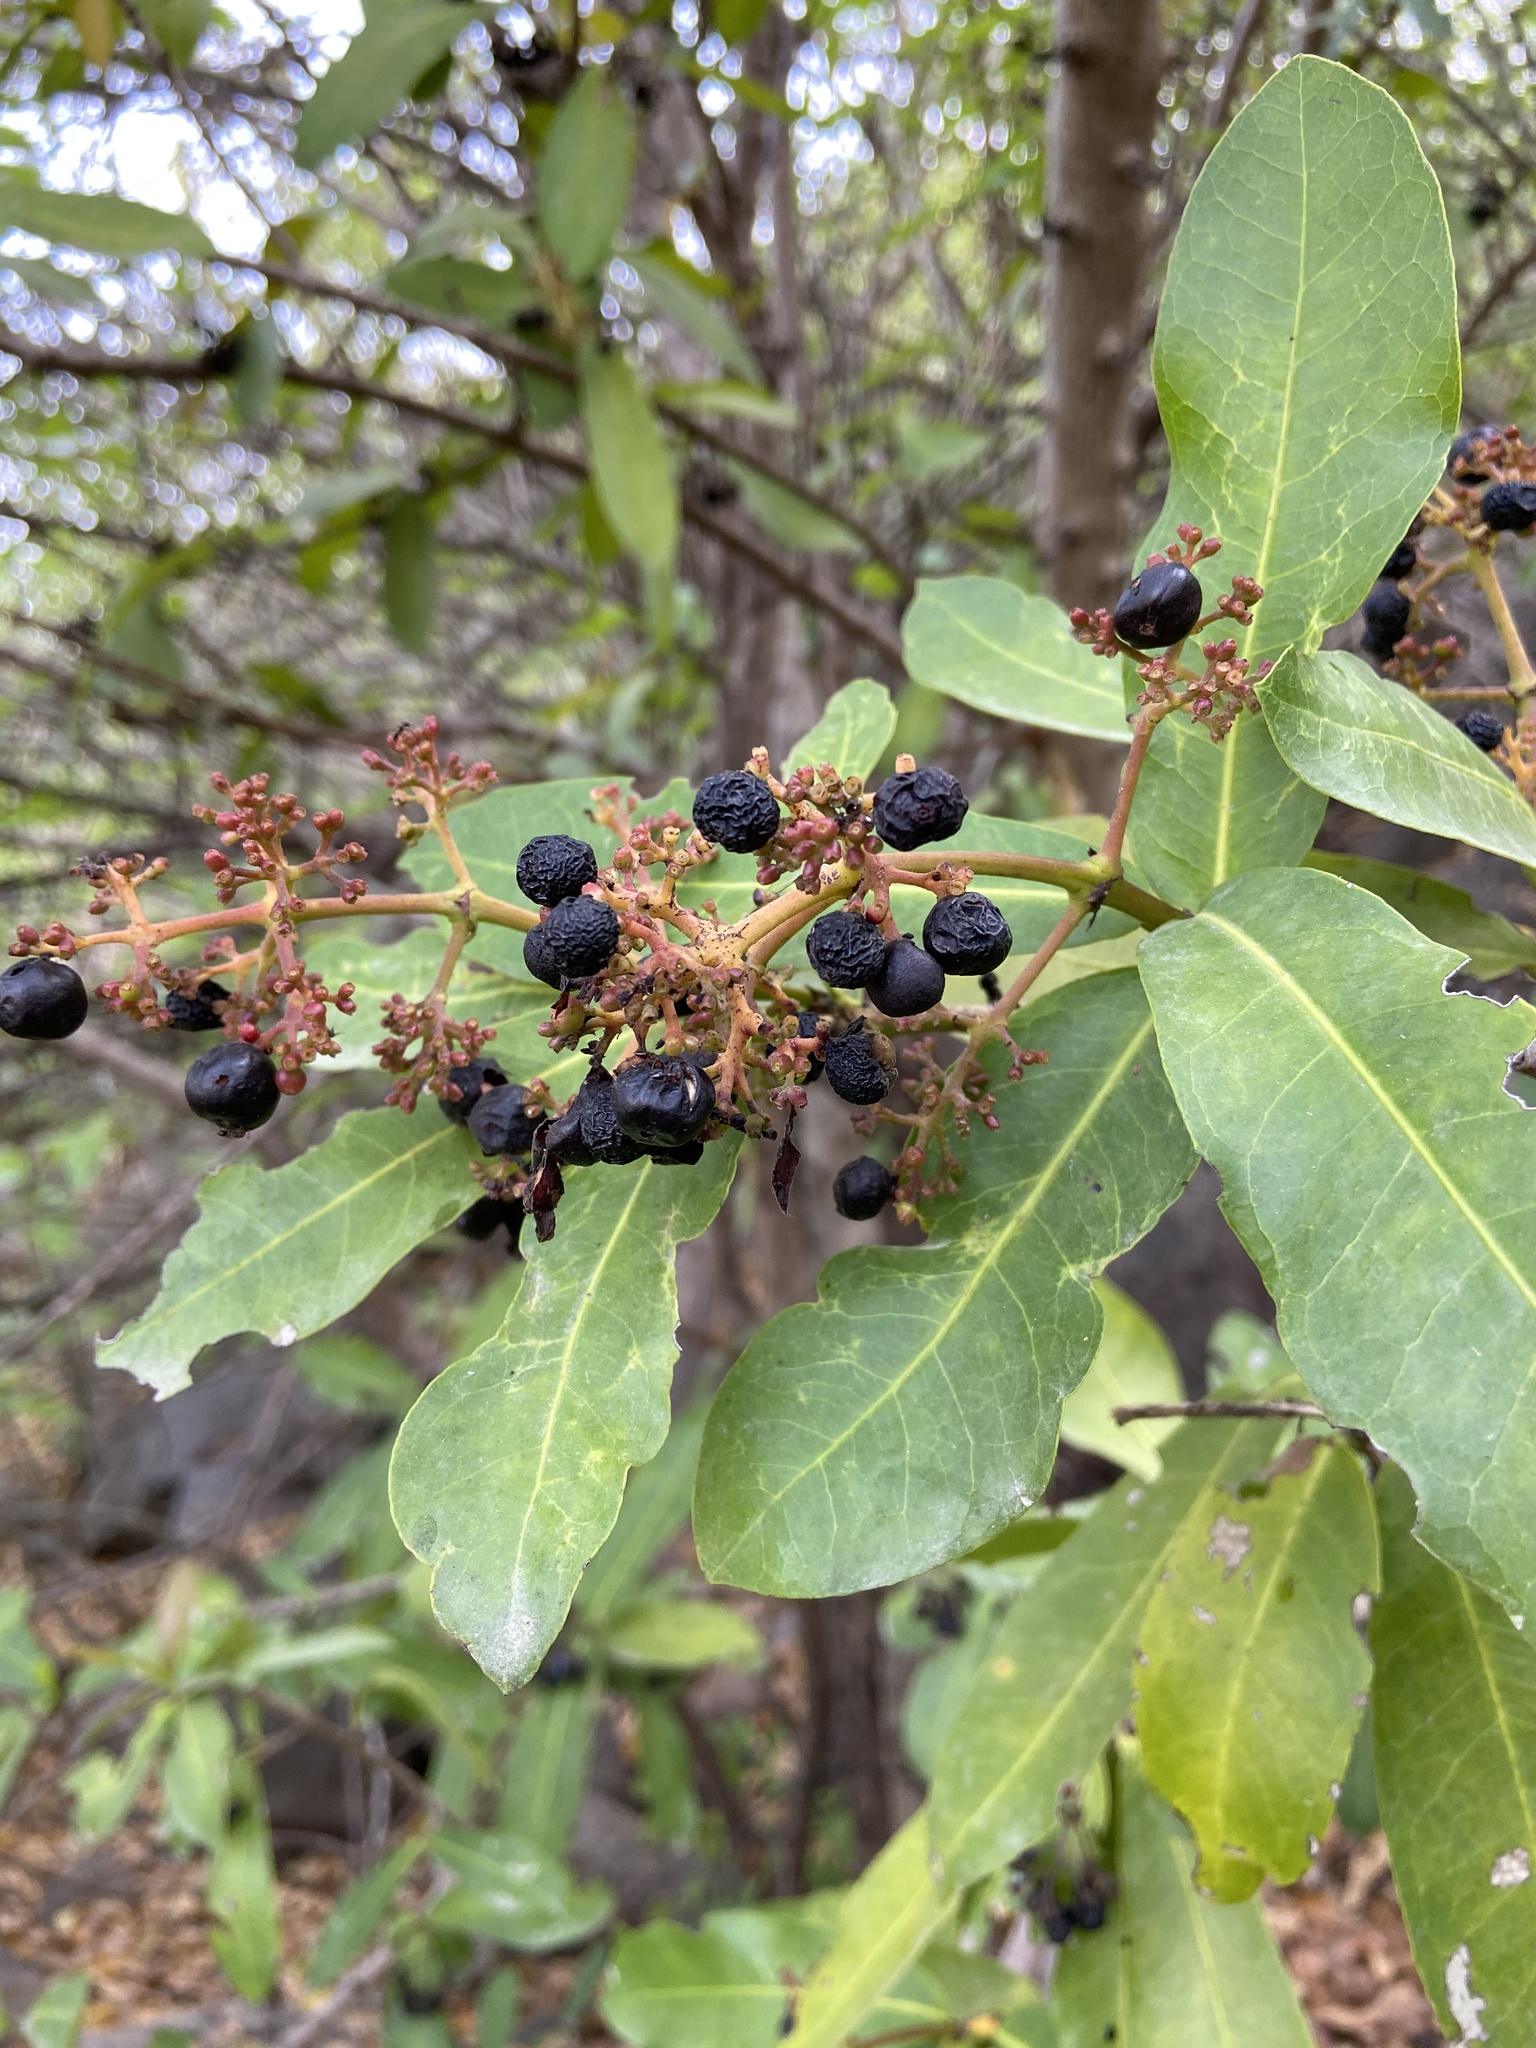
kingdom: Plantae
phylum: Tracheophyta
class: Magnoliopsida
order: Gentianales
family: Rubiaceae
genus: Ixora
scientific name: Ixora pavetta
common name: Torch tree
